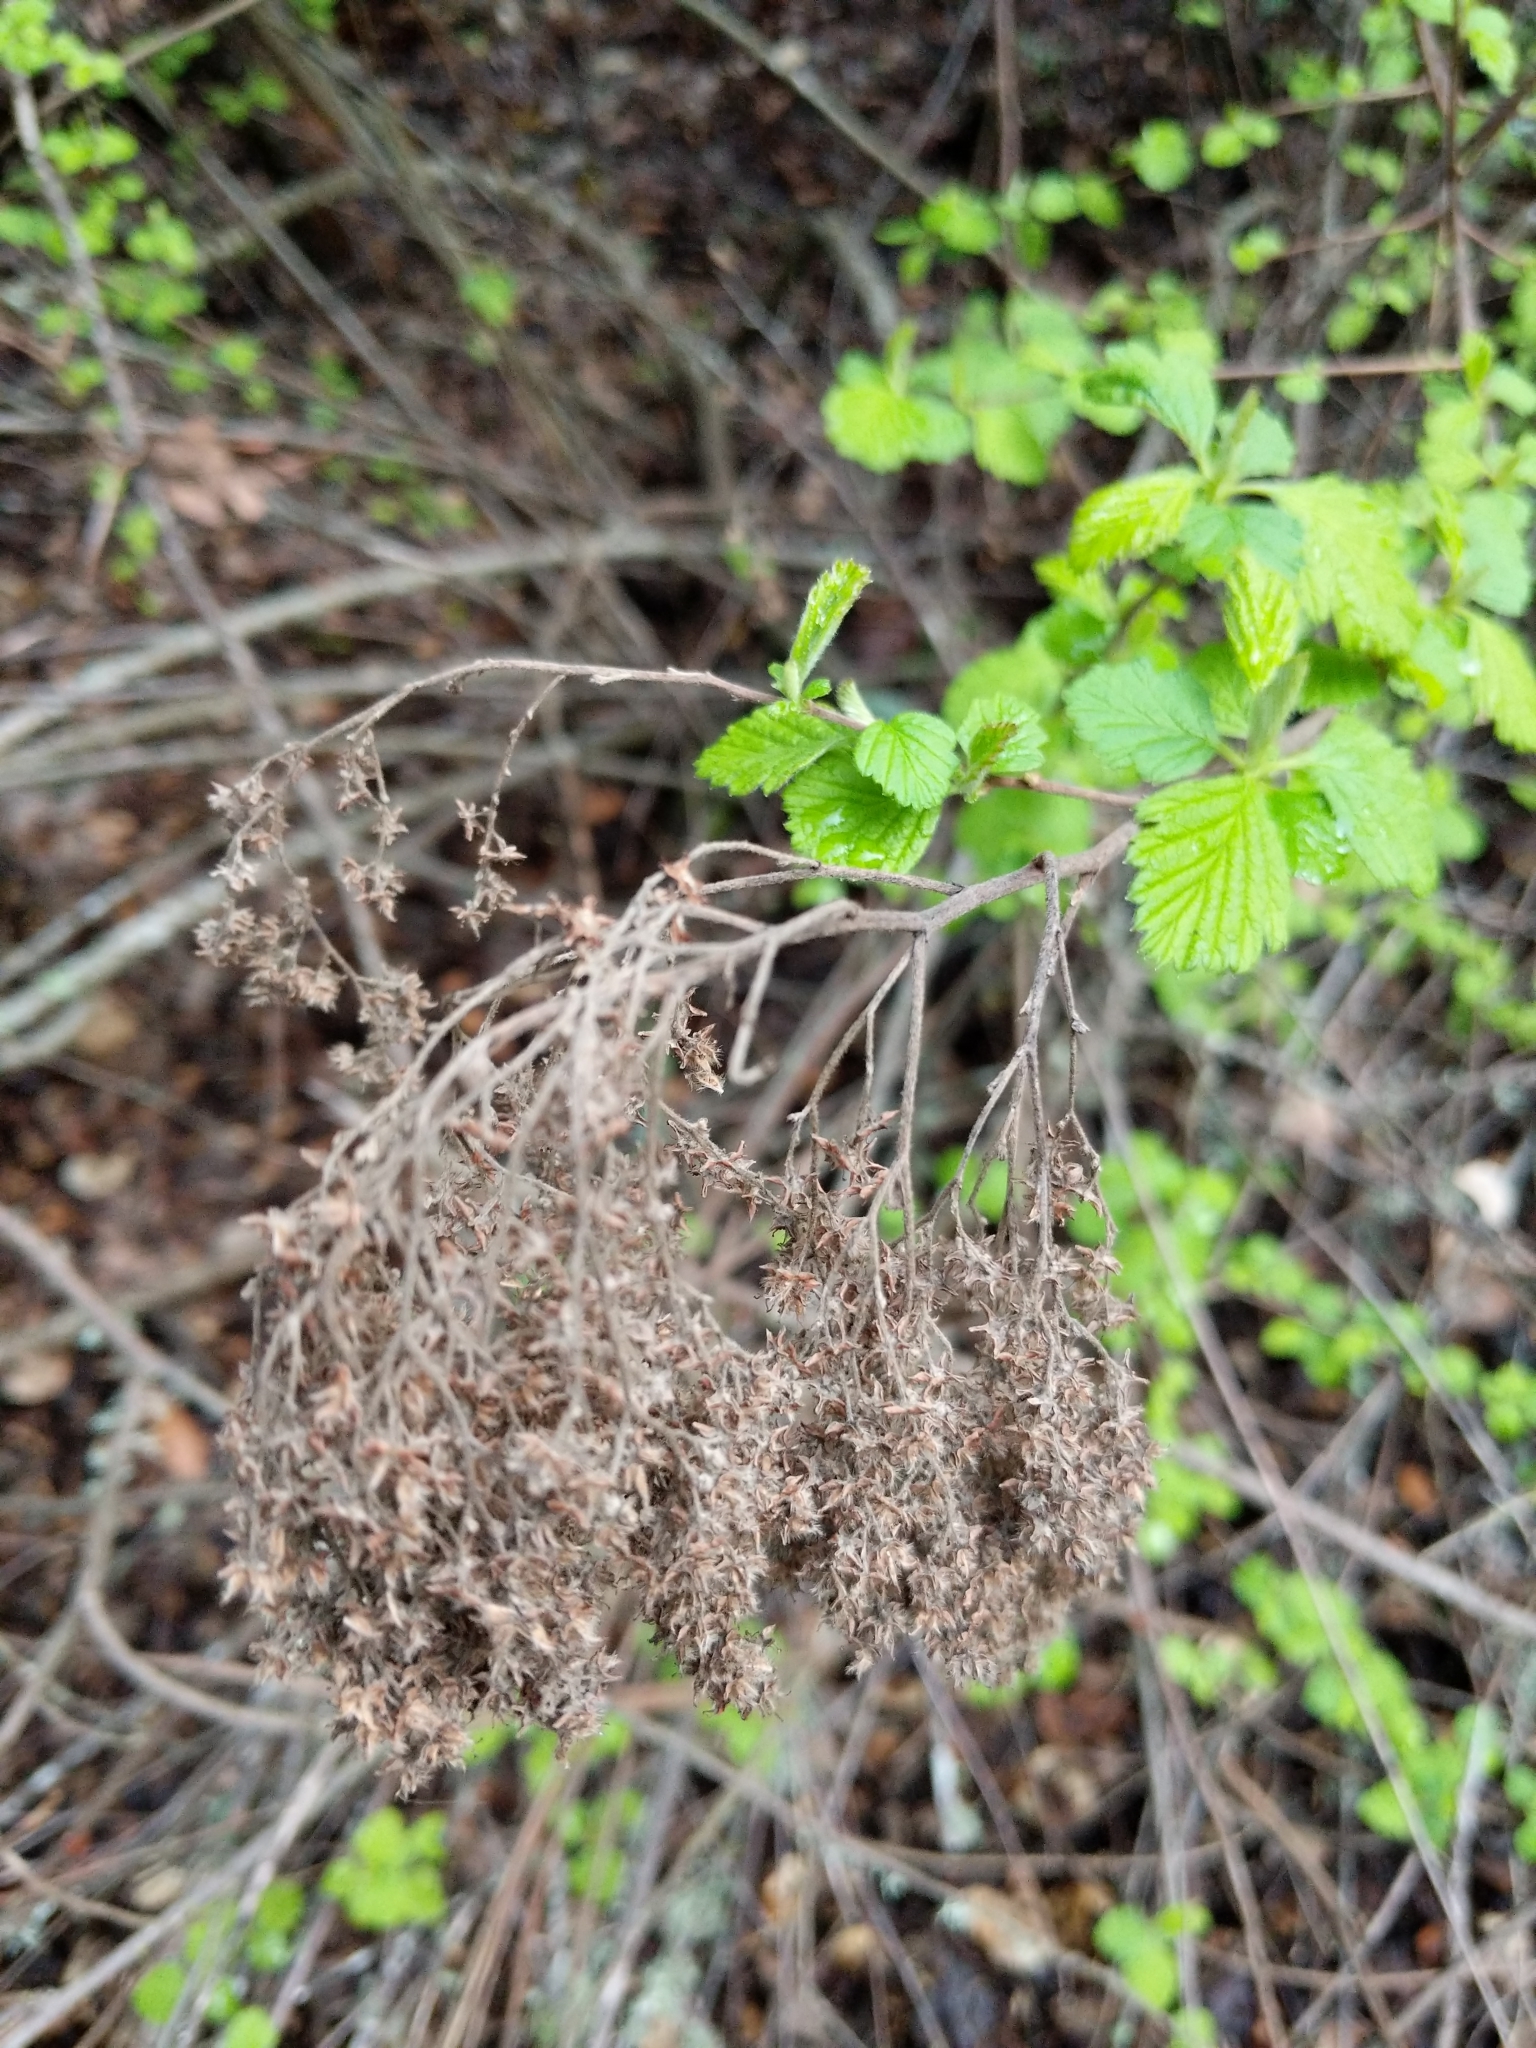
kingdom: Plantae
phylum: Tracheophyta
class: Magnoliopsida
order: Rosales
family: Rosaceae
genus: Holodiscus
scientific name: Holodiscus discolor
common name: Oceanspray
